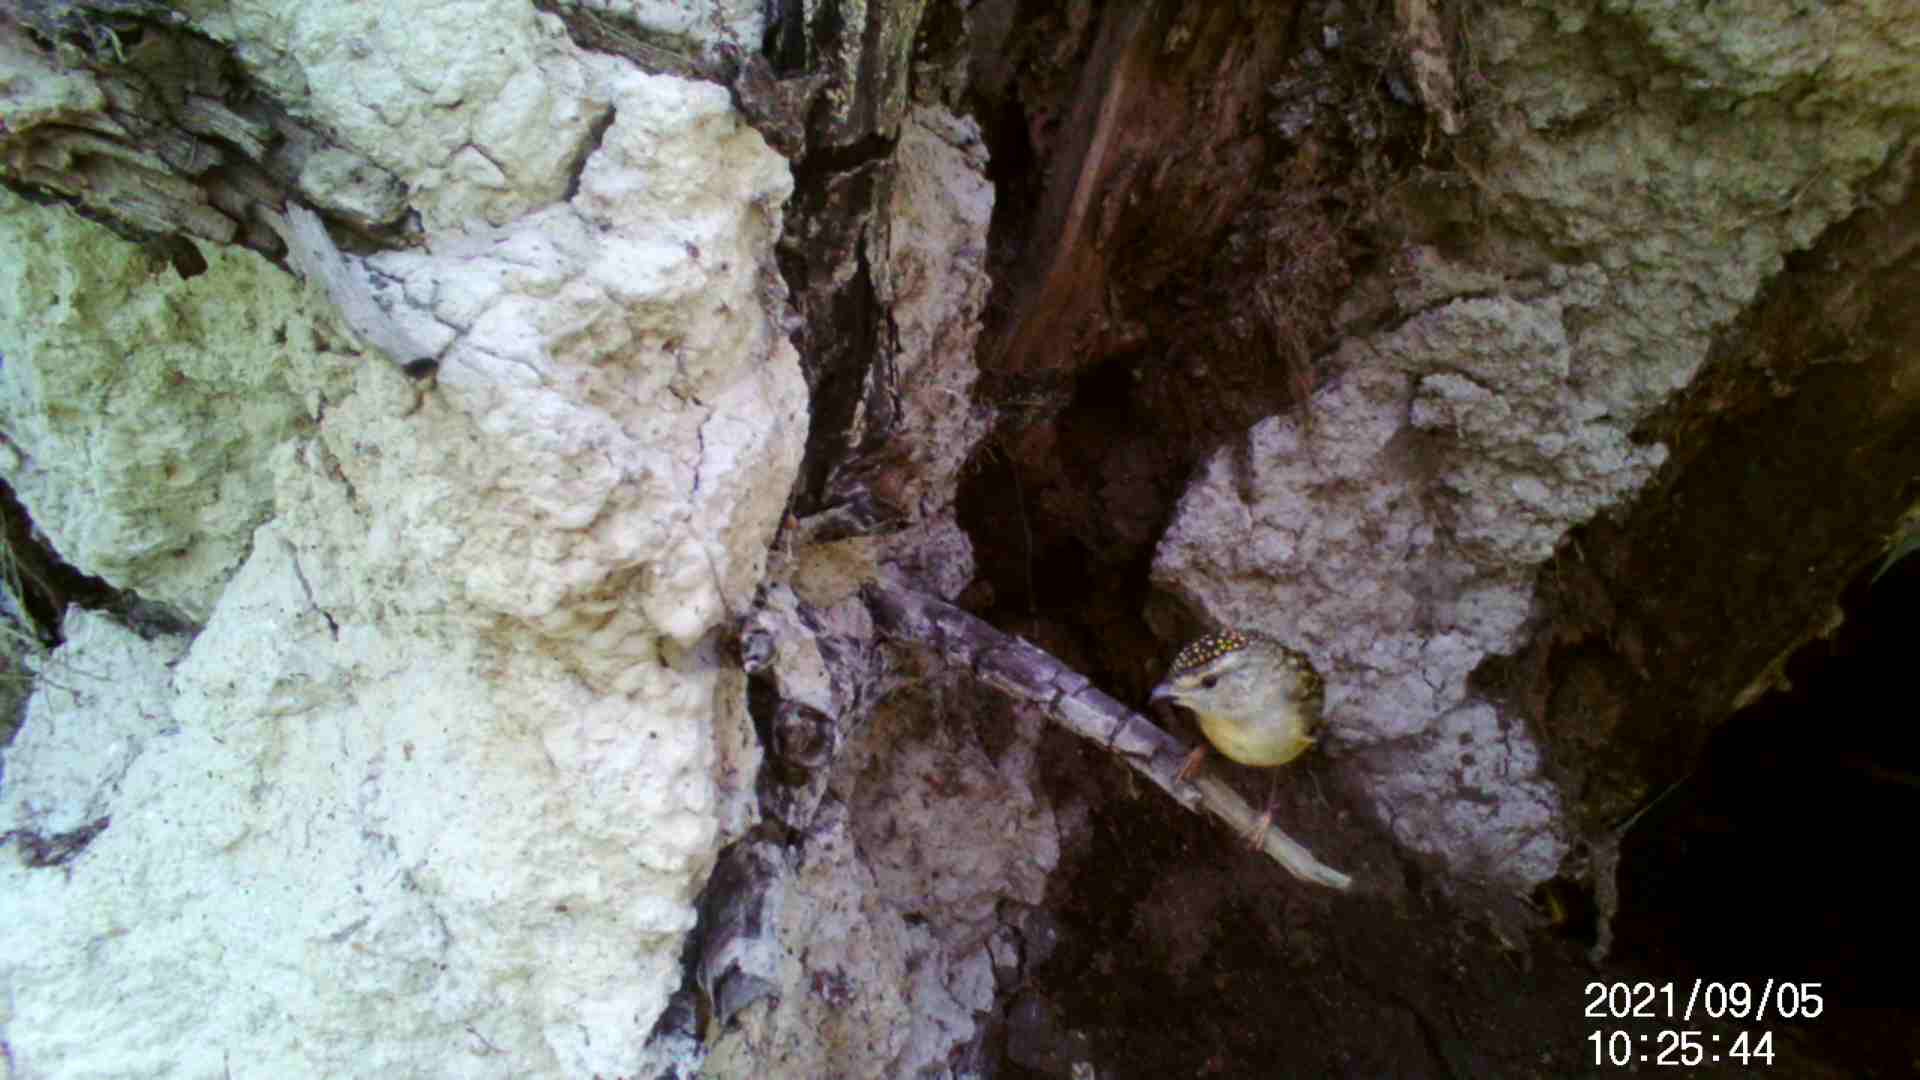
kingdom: Animalia
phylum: Chordata
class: Aves
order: Passeriformes
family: Pardalotidae
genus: Pardalotus
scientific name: Pardalotus punctatus
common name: Spotted pardalote
